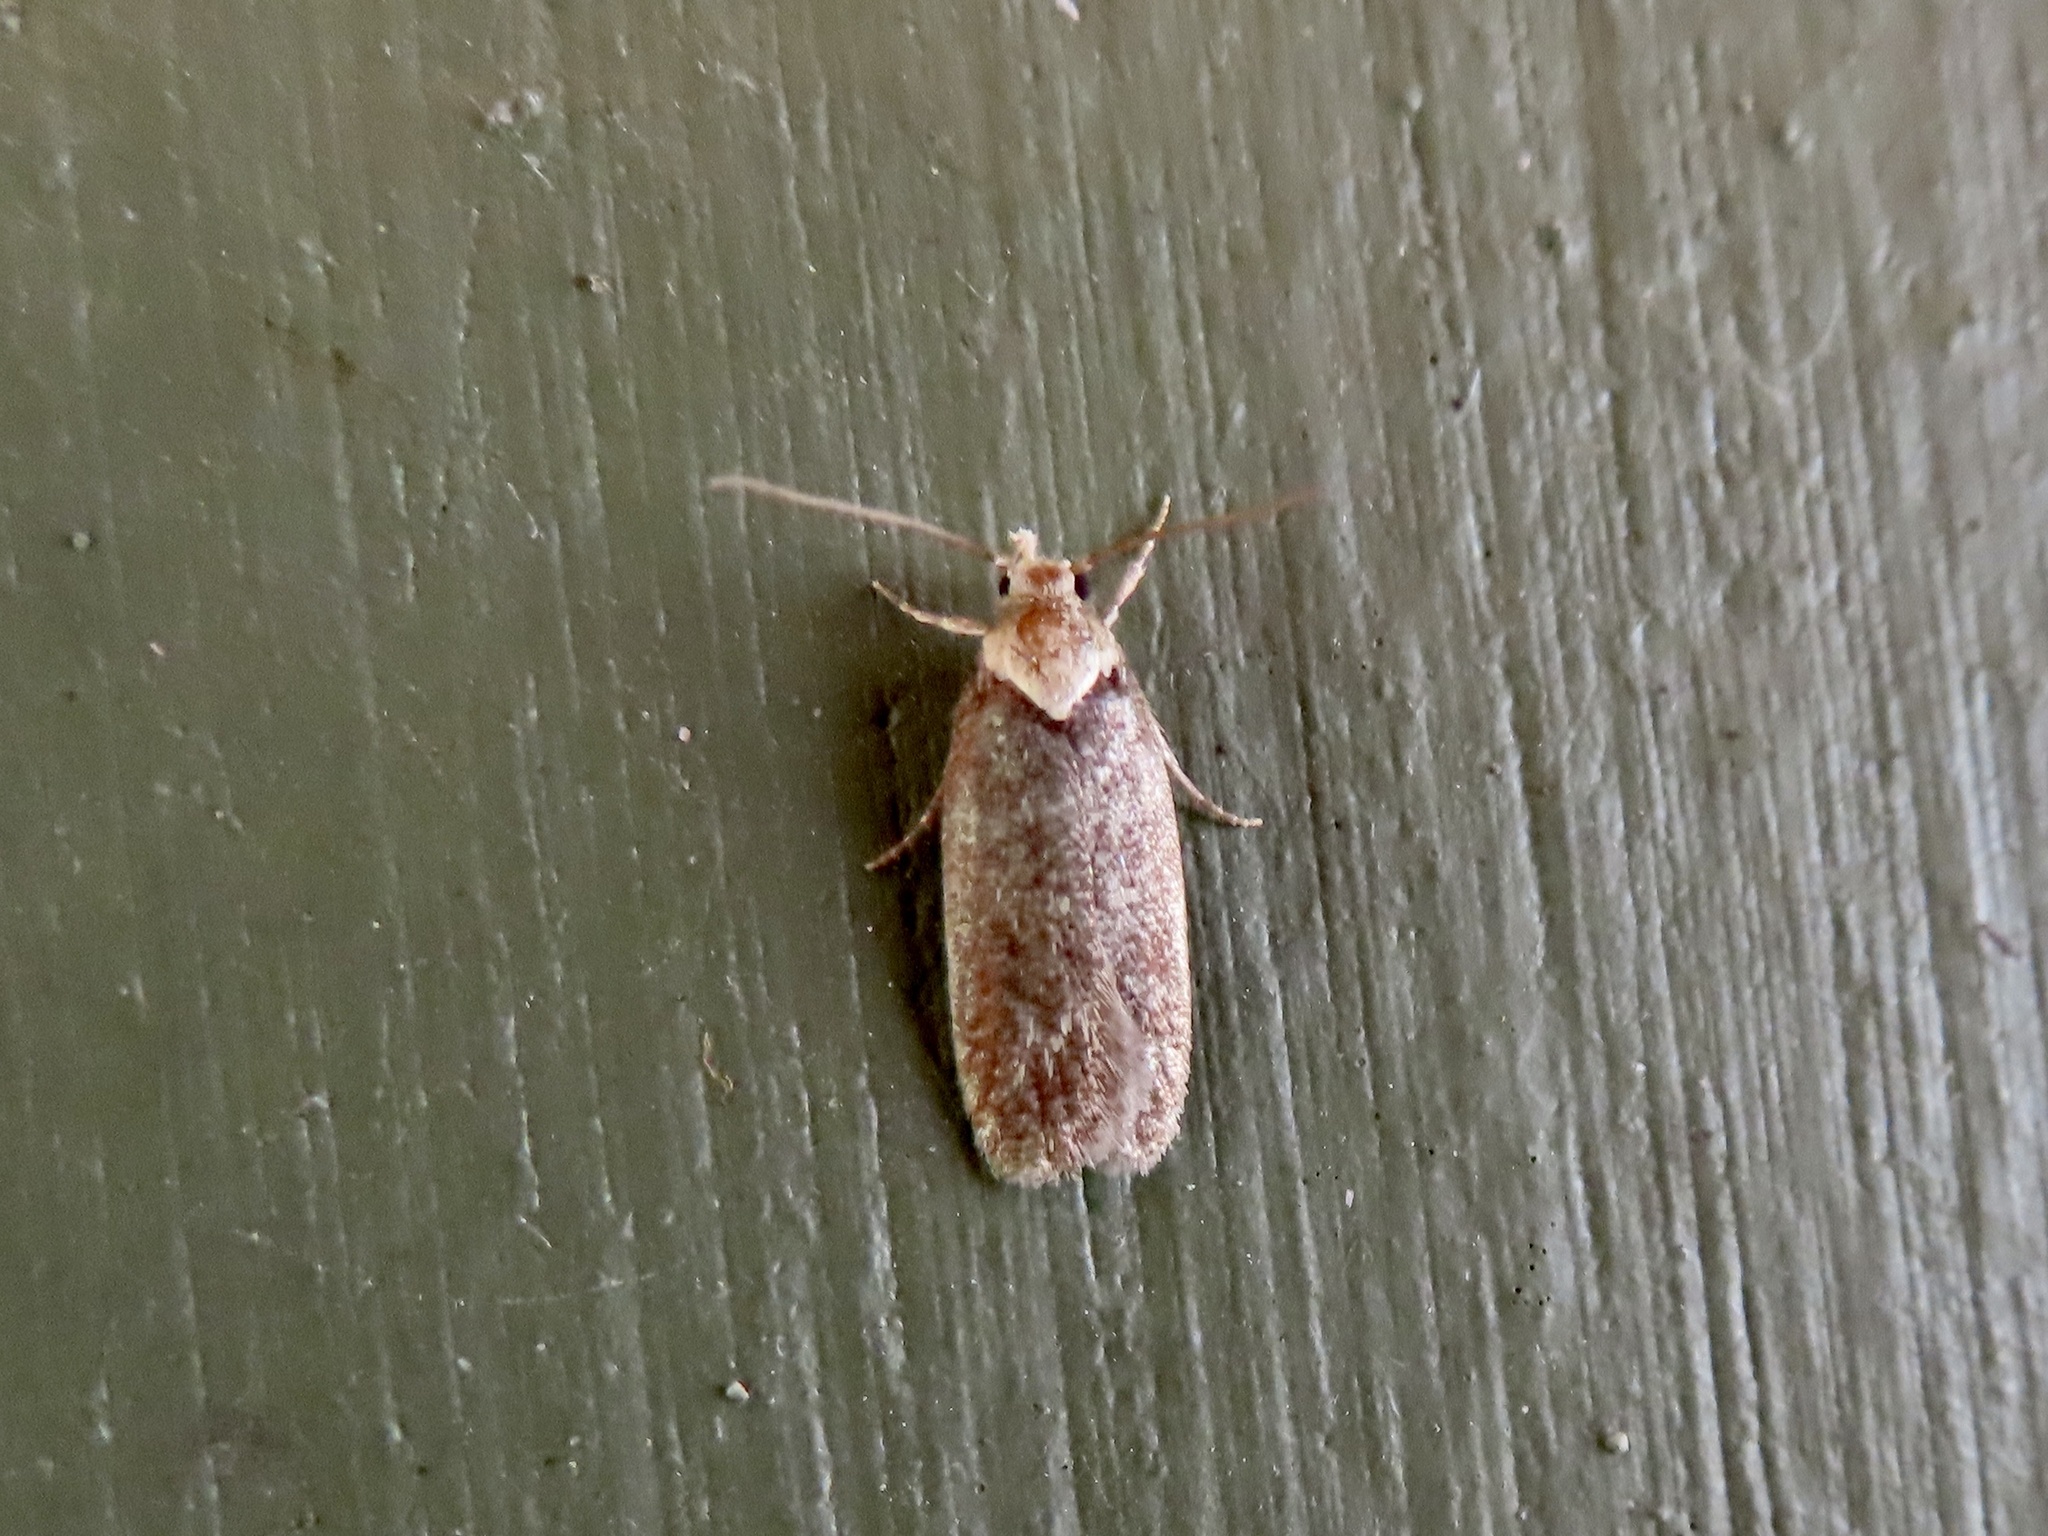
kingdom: Animalia
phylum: Arthropoda
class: Insecta
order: Lepidoptera
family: Depressariidae
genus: Depressaria
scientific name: Depressaria depressana
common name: Lost flat-body
